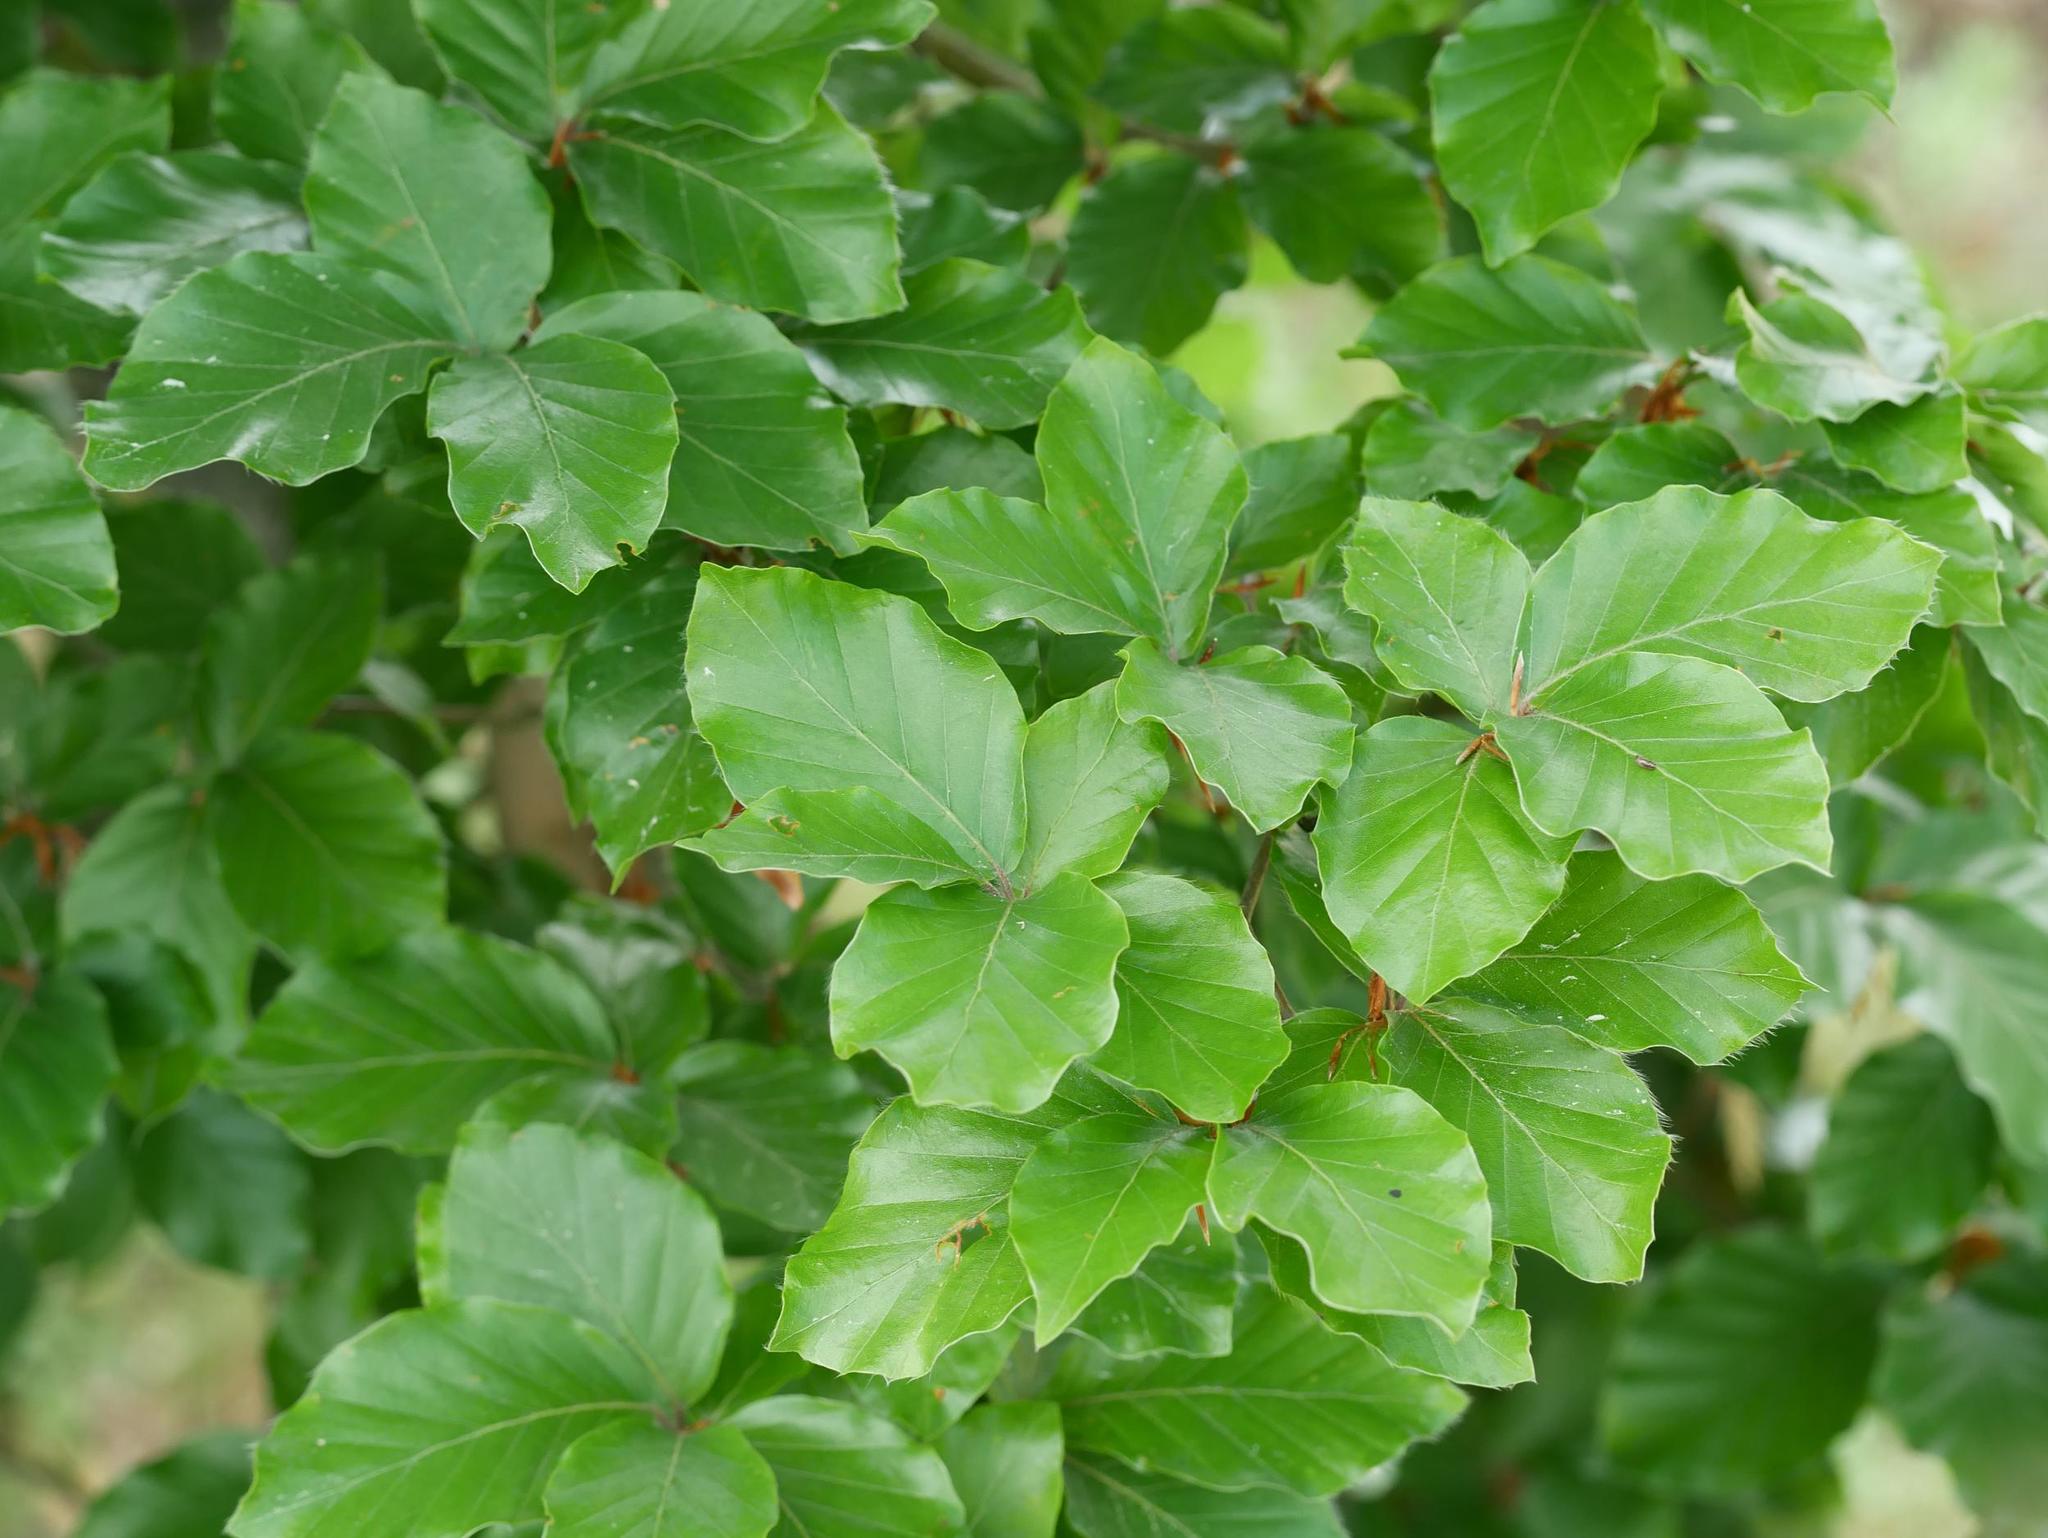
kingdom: Plantae
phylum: Tracheophyta
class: Magnoliopsida
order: Fagales
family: Fagaceae
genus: Fagus
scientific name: Fagus sylvatica
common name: Beech
